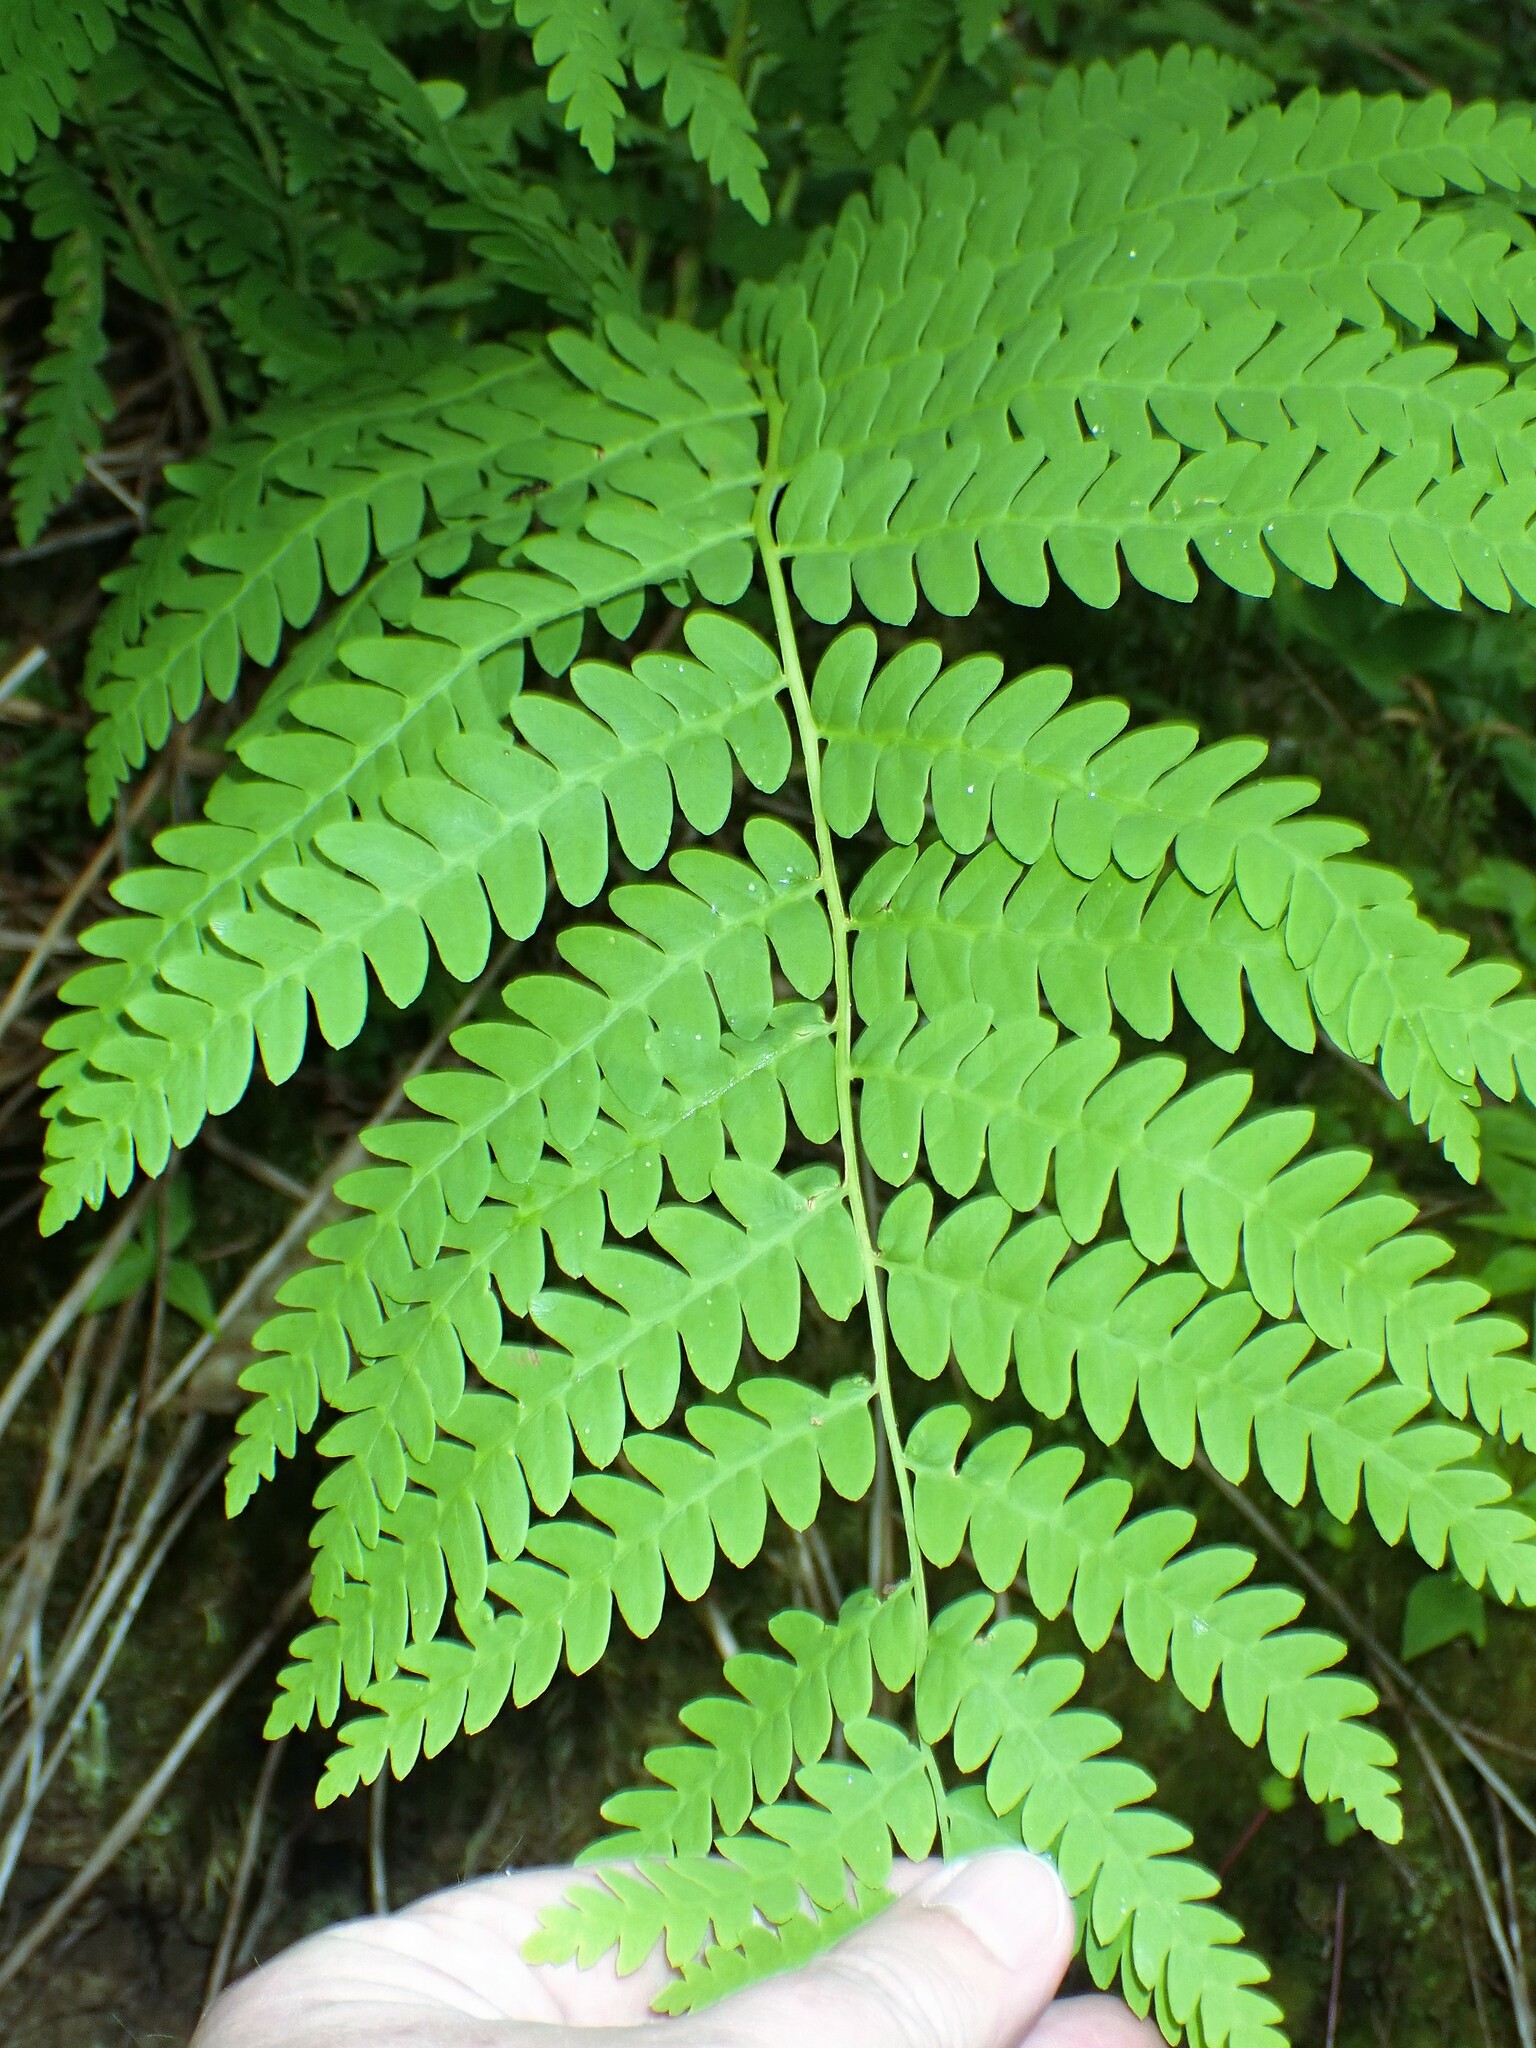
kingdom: Plantae
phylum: Tracheophyta
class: Polypodiopsida
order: Osmundales
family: Osmundaceae
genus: Claytosmunda
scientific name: Claytosmunda claytoniana
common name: Clayton's fern
